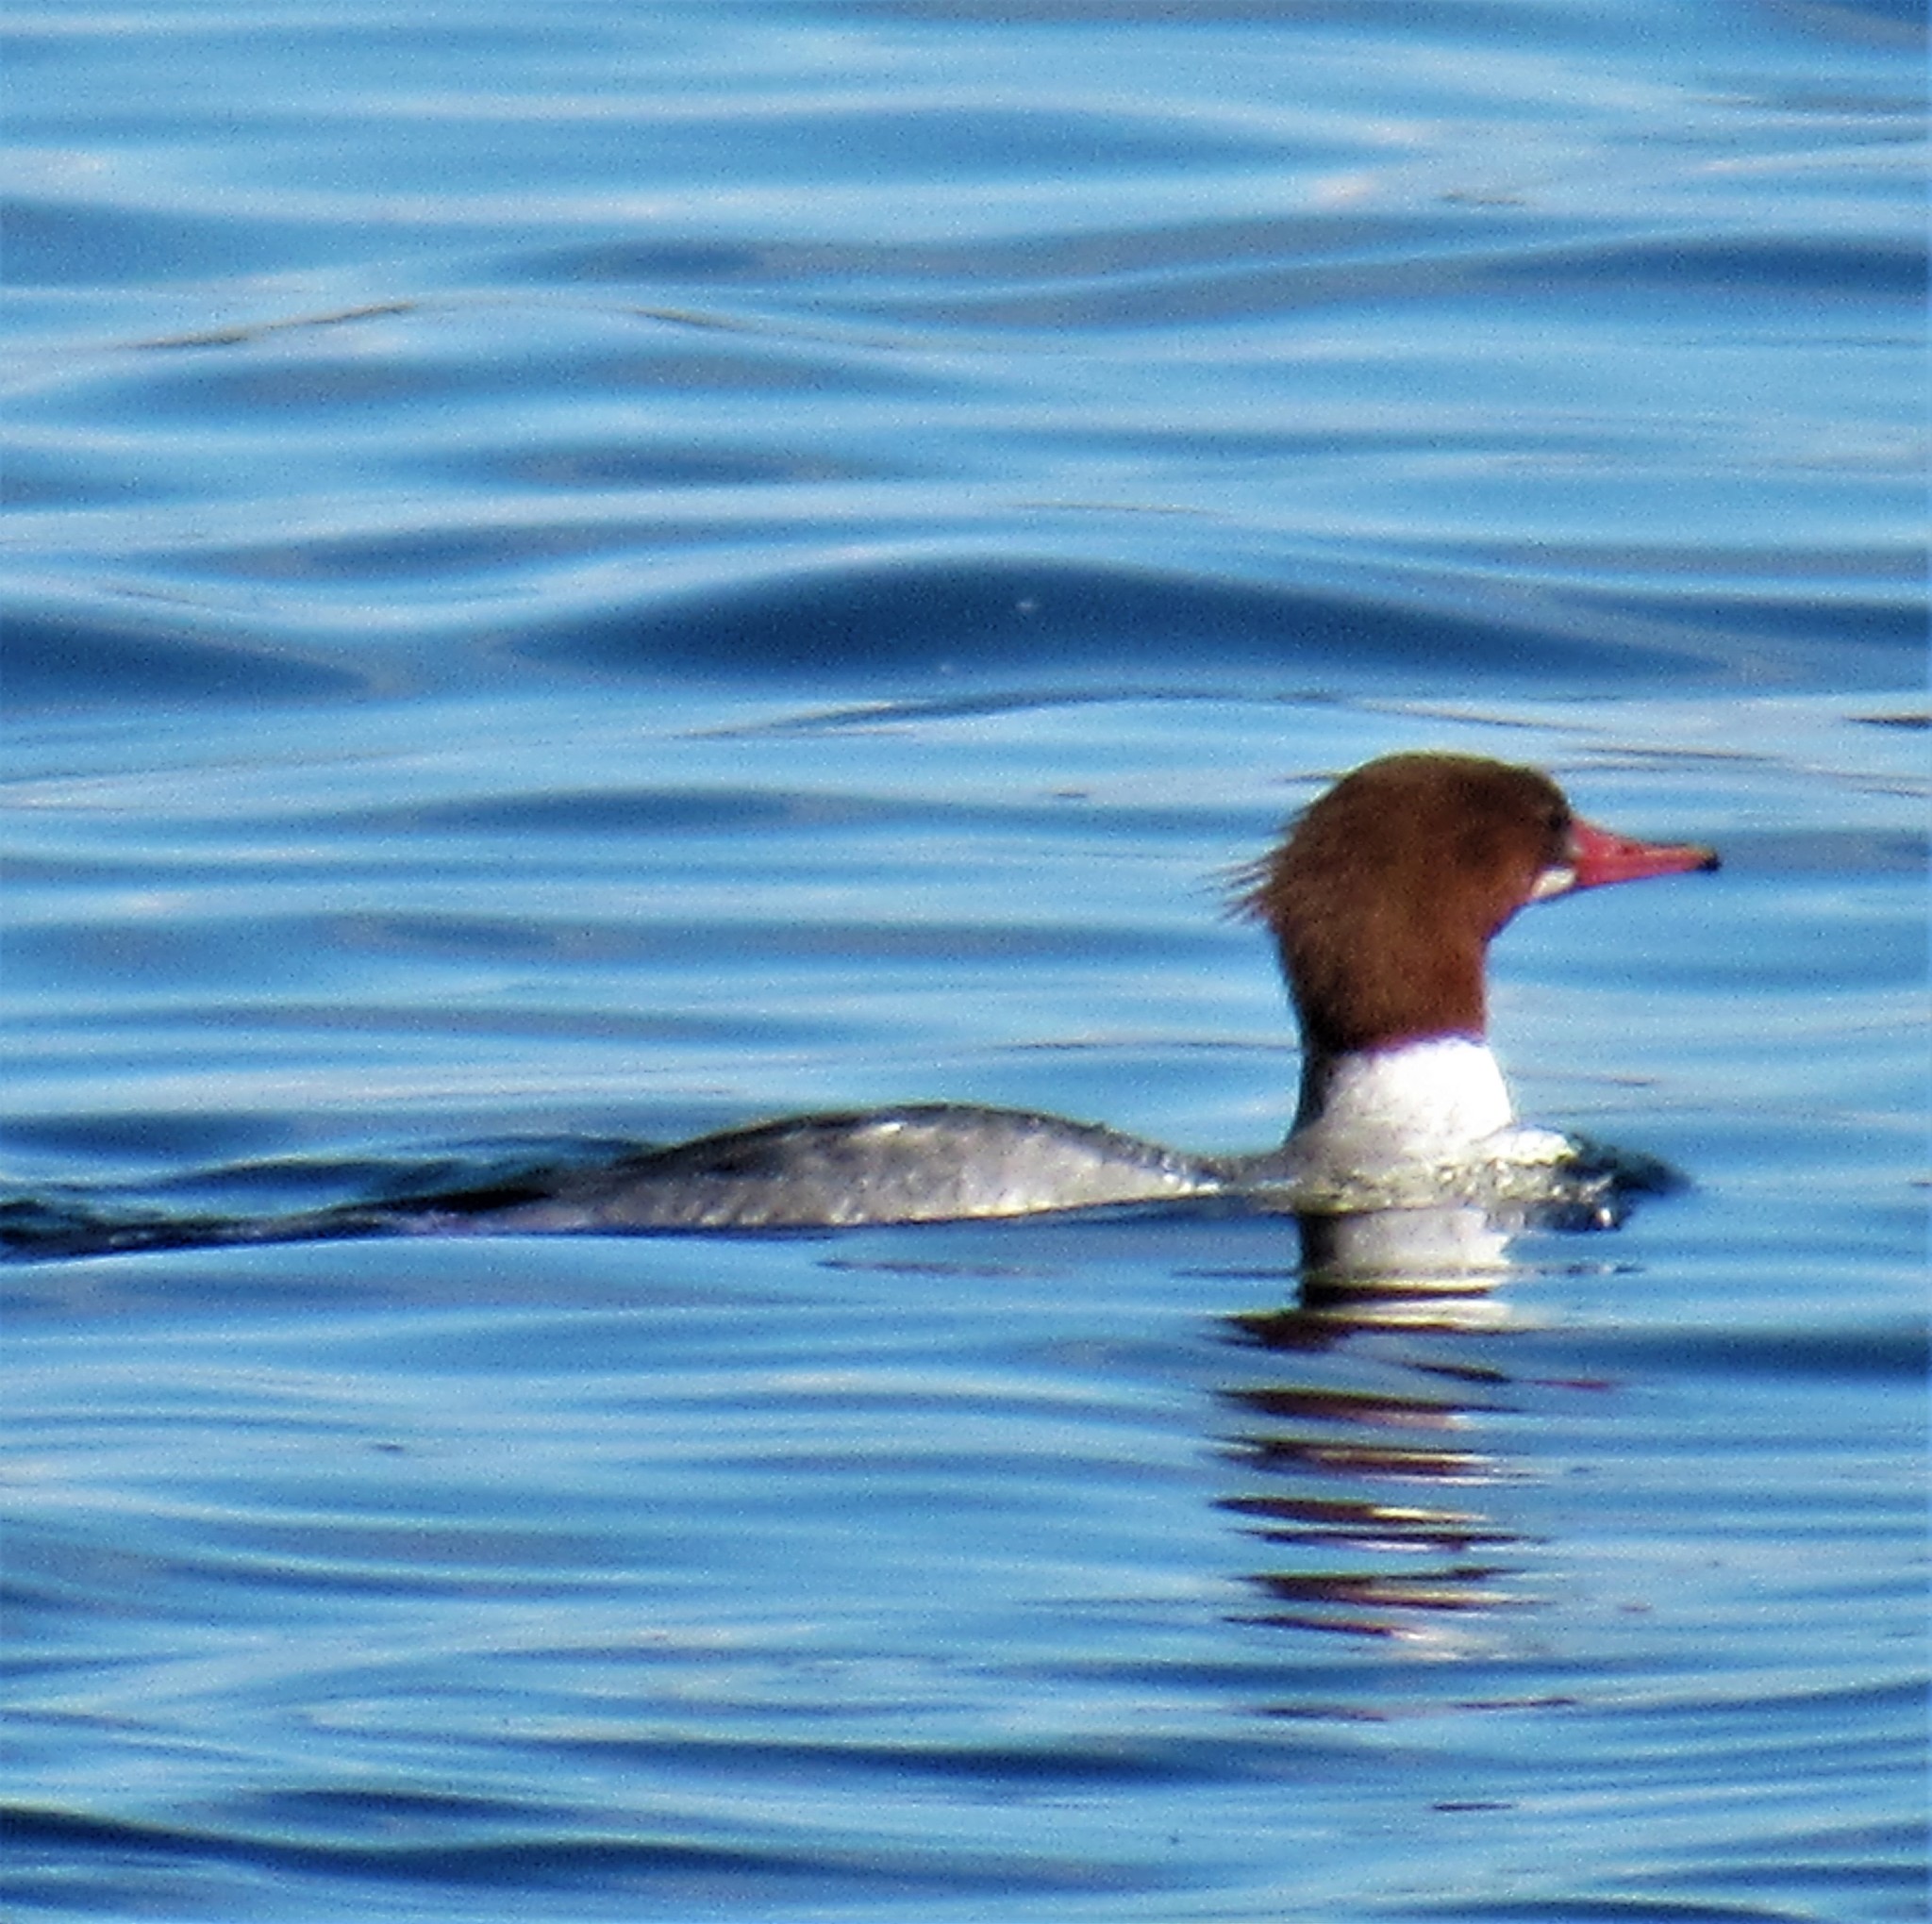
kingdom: Animalia
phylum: Chordata
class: Aves
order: Anseriformes
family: Anatidae
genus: Mergus
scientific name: Mergus merganser
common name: Common merganser
